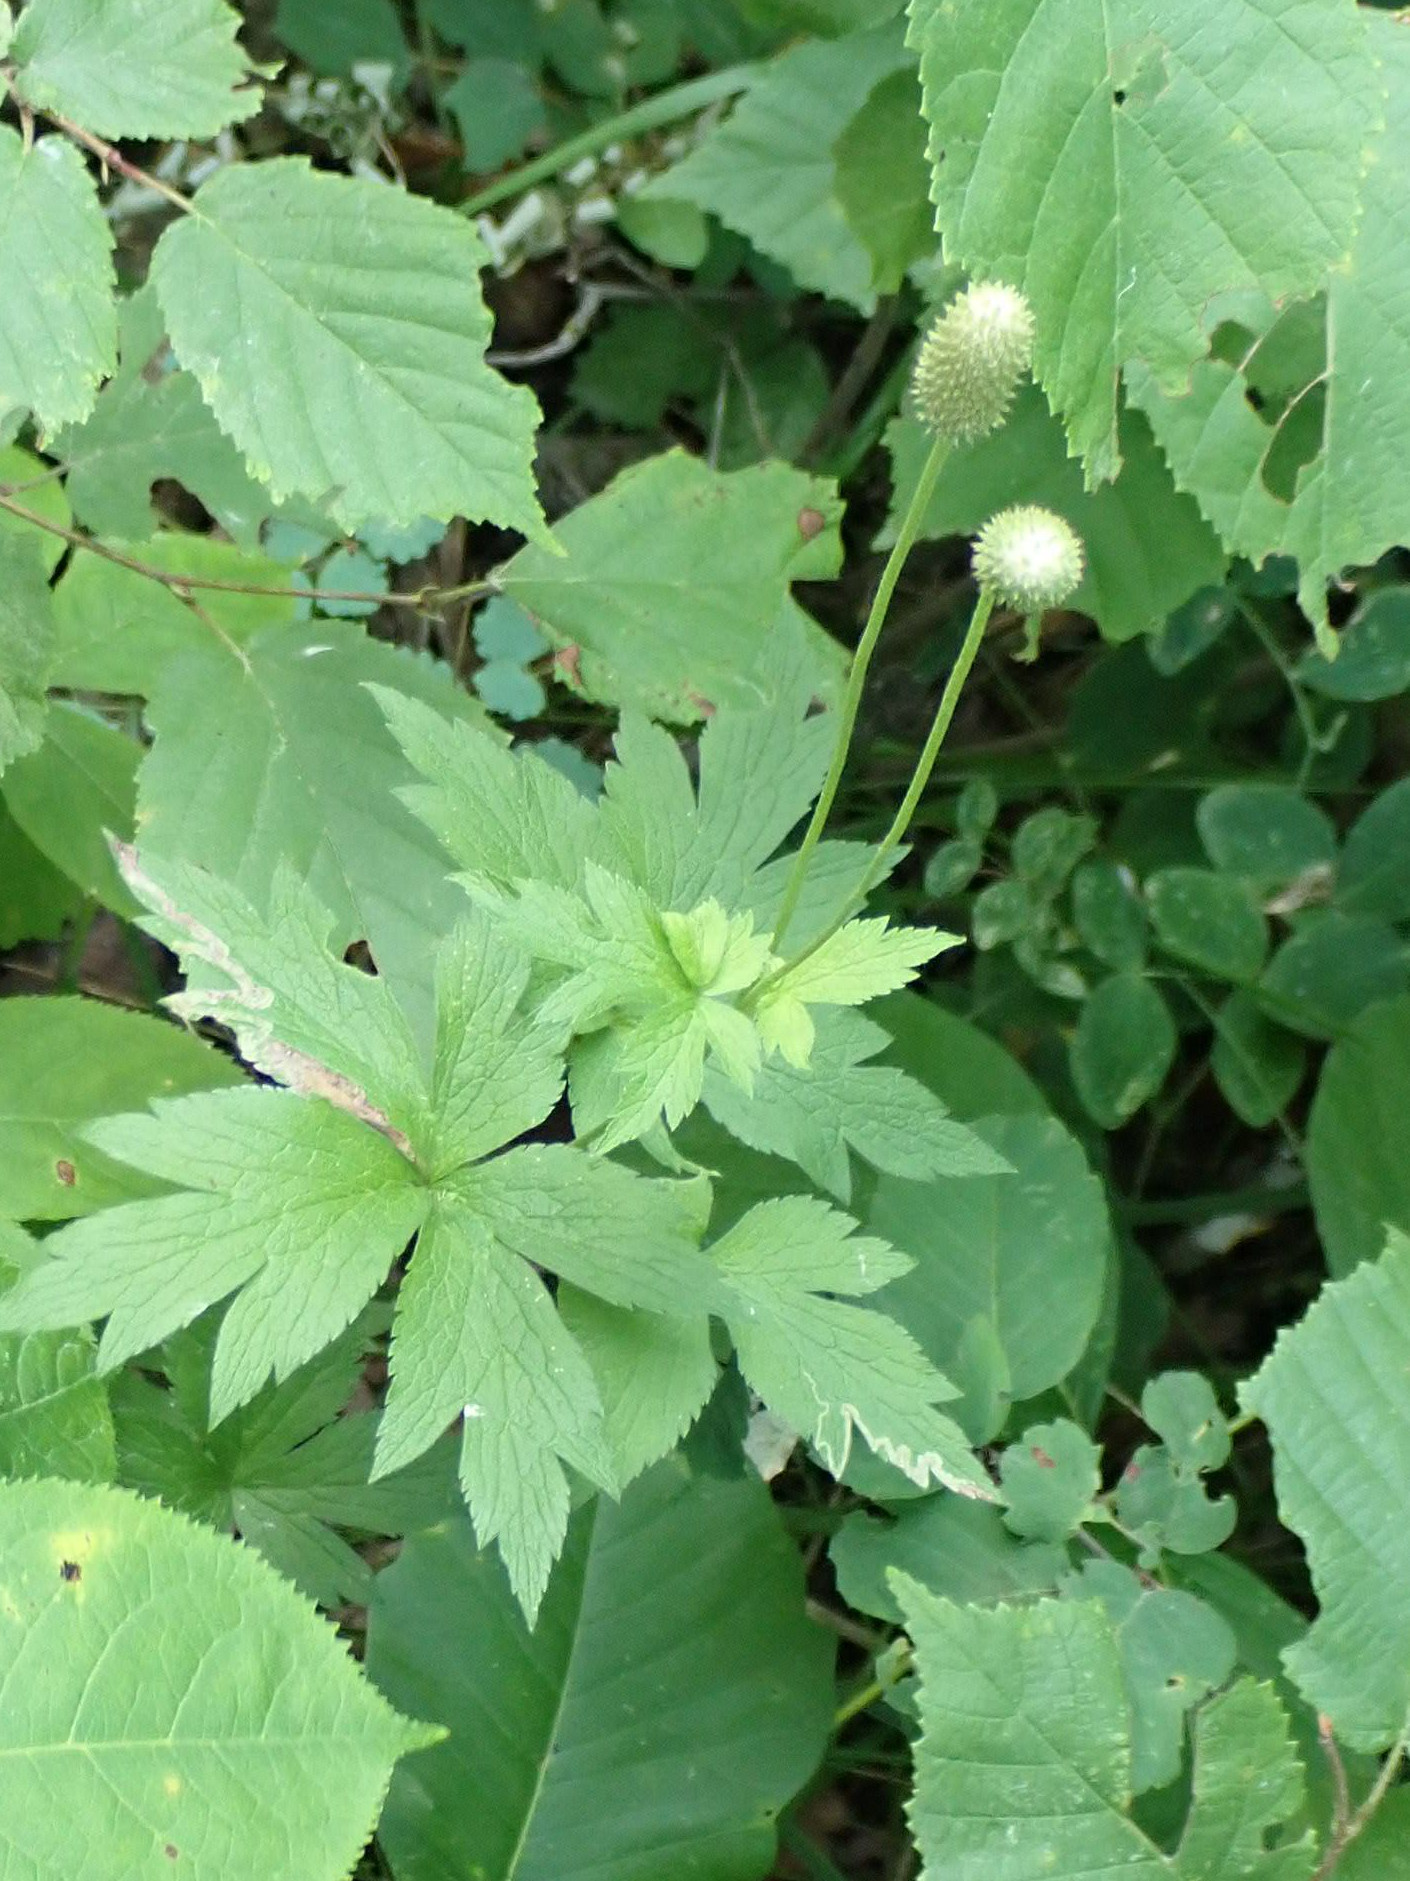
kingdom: Plantae
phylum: Tracheophyta
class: Magnoliopsida
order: Ranunculales
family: Ranunculaceae
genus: Anemone
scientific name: Anemone virginiana
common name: Tall anemone
